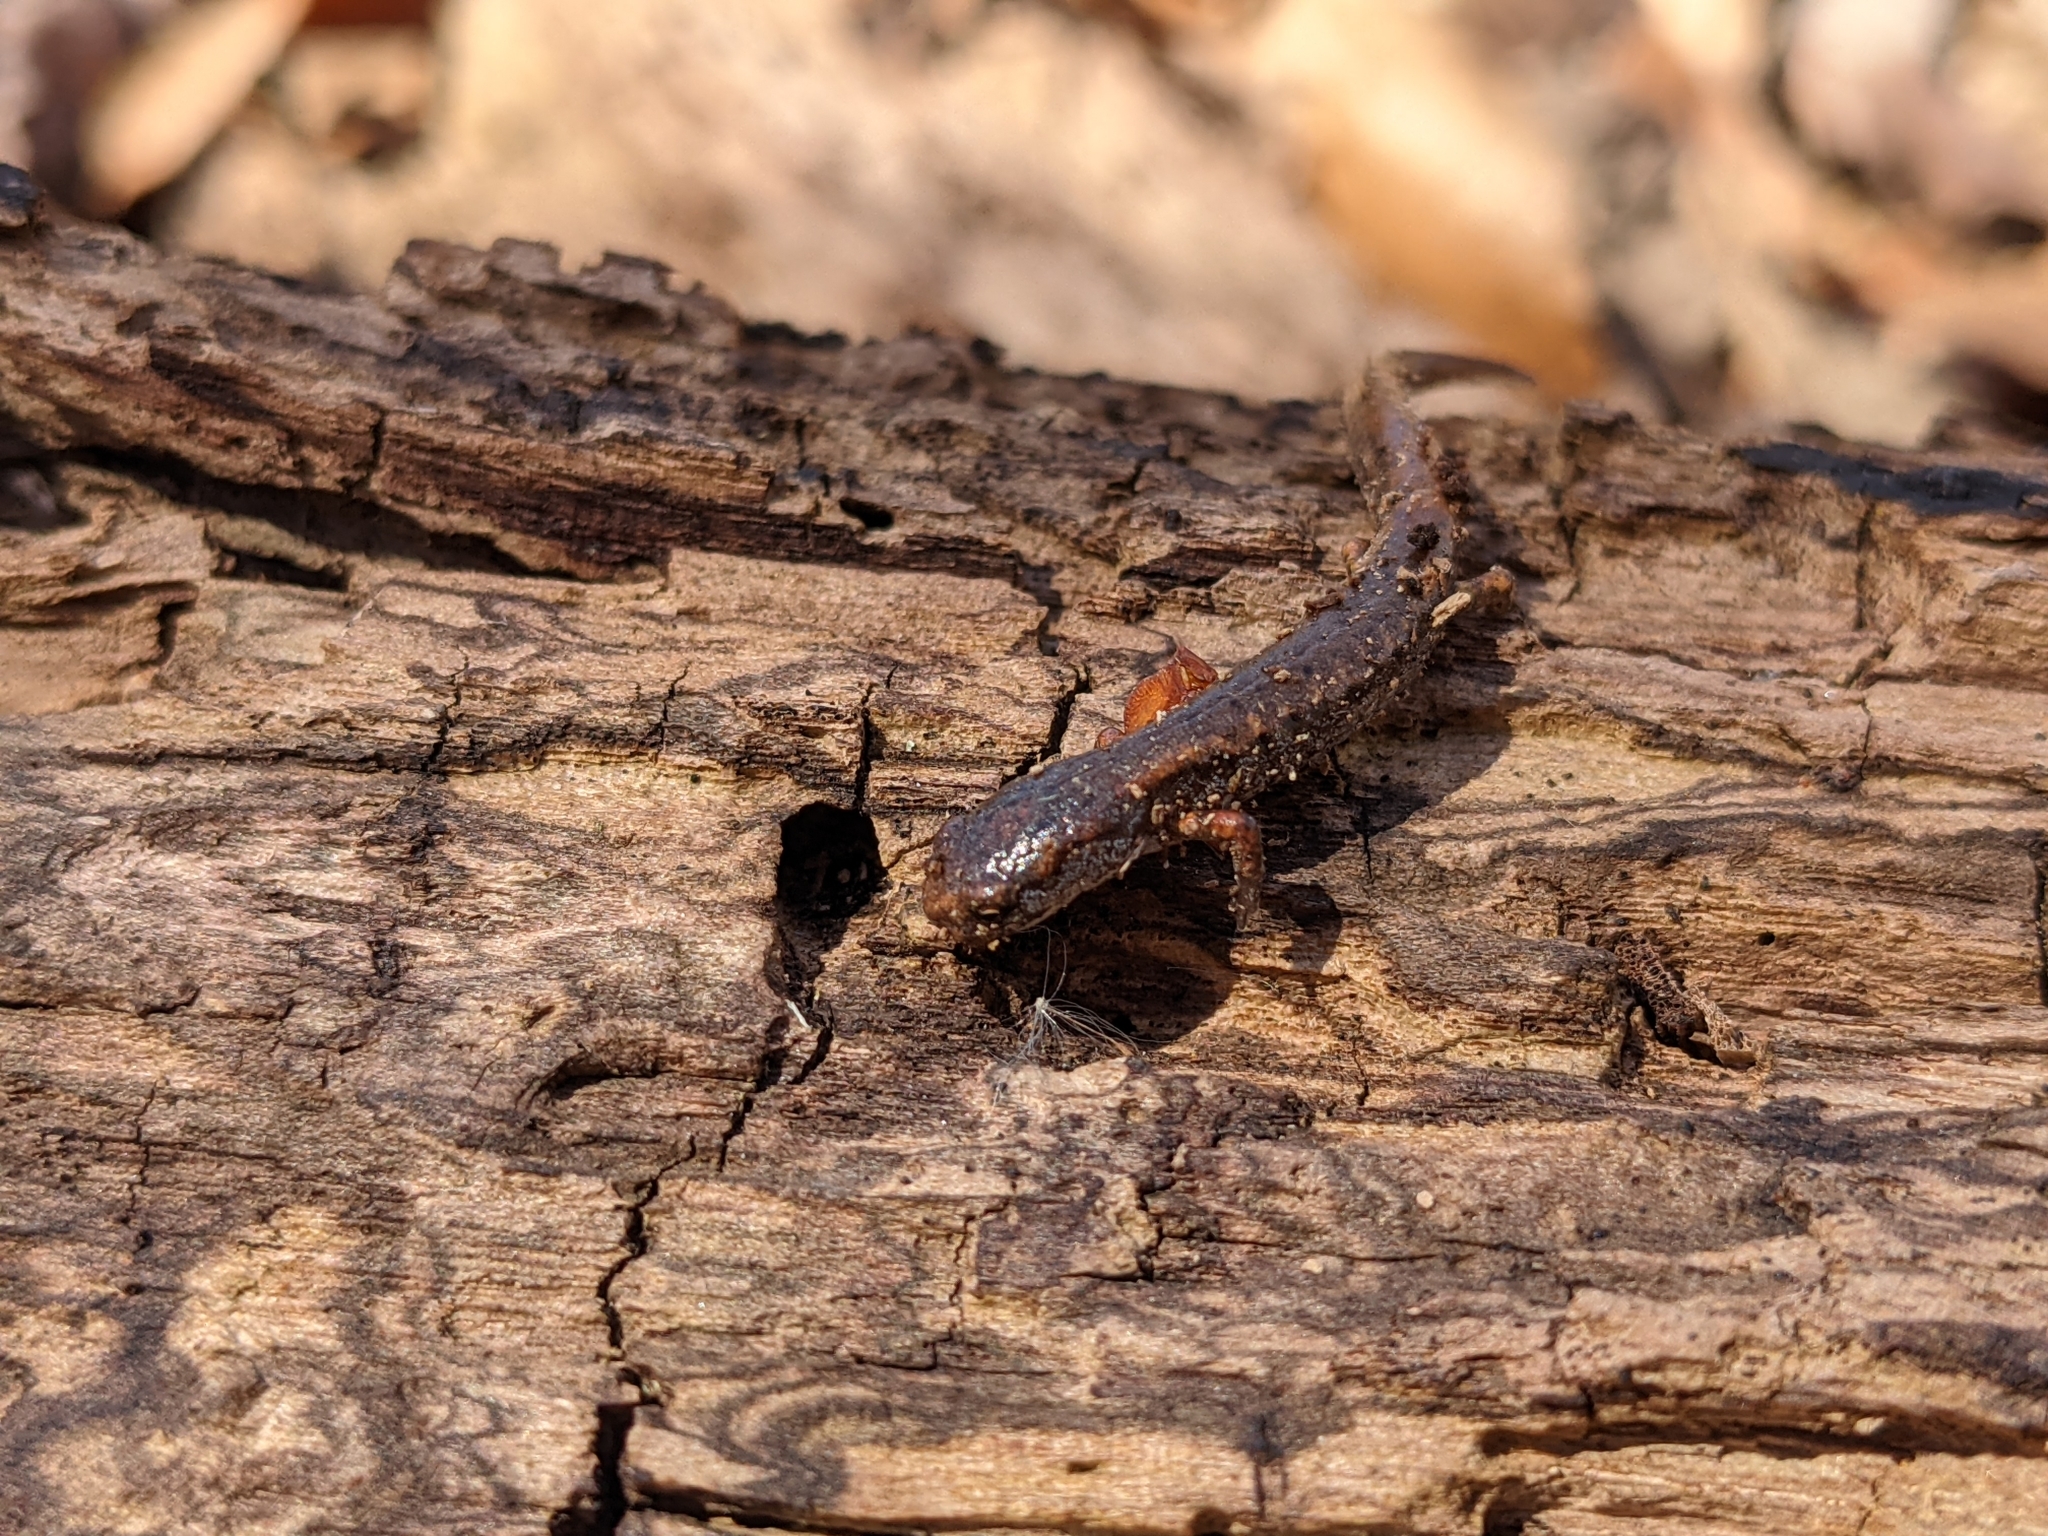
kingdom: Animalia
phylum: Chordata
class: Amphibia
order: Caudata
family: Plethodontidae
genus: Hemidactylium
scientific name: Hemidactylium scutatum
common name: Four-toed salamander
